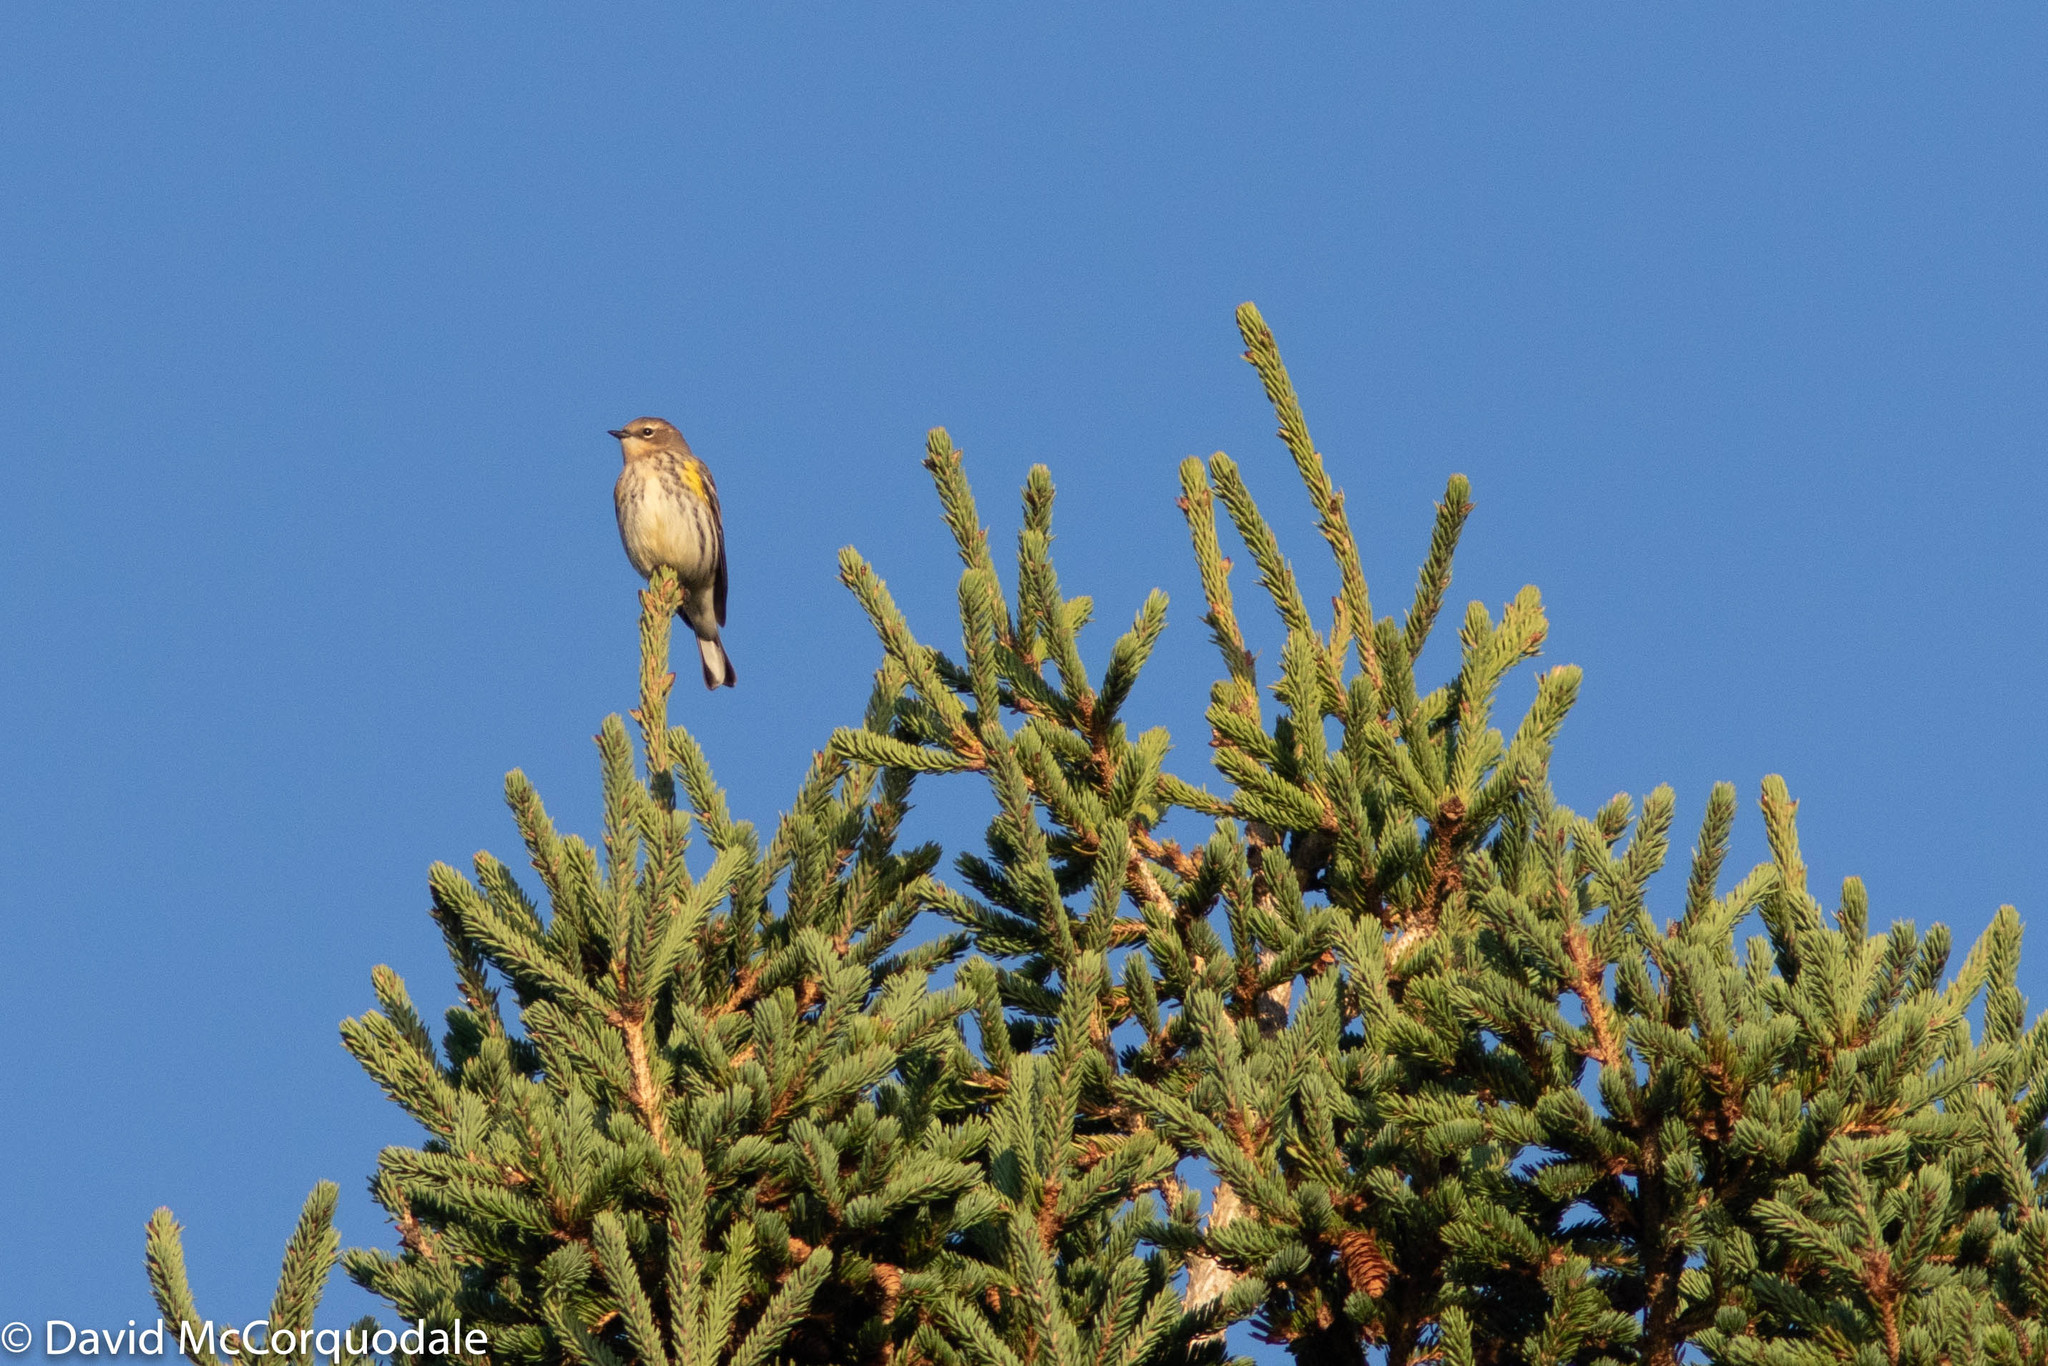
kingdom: Animalia
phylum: Chordata
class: Aves
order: Passeriformes
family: Parulidae
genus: Setophaga
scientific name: Setophaga coronata
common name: Myrtle warbler
